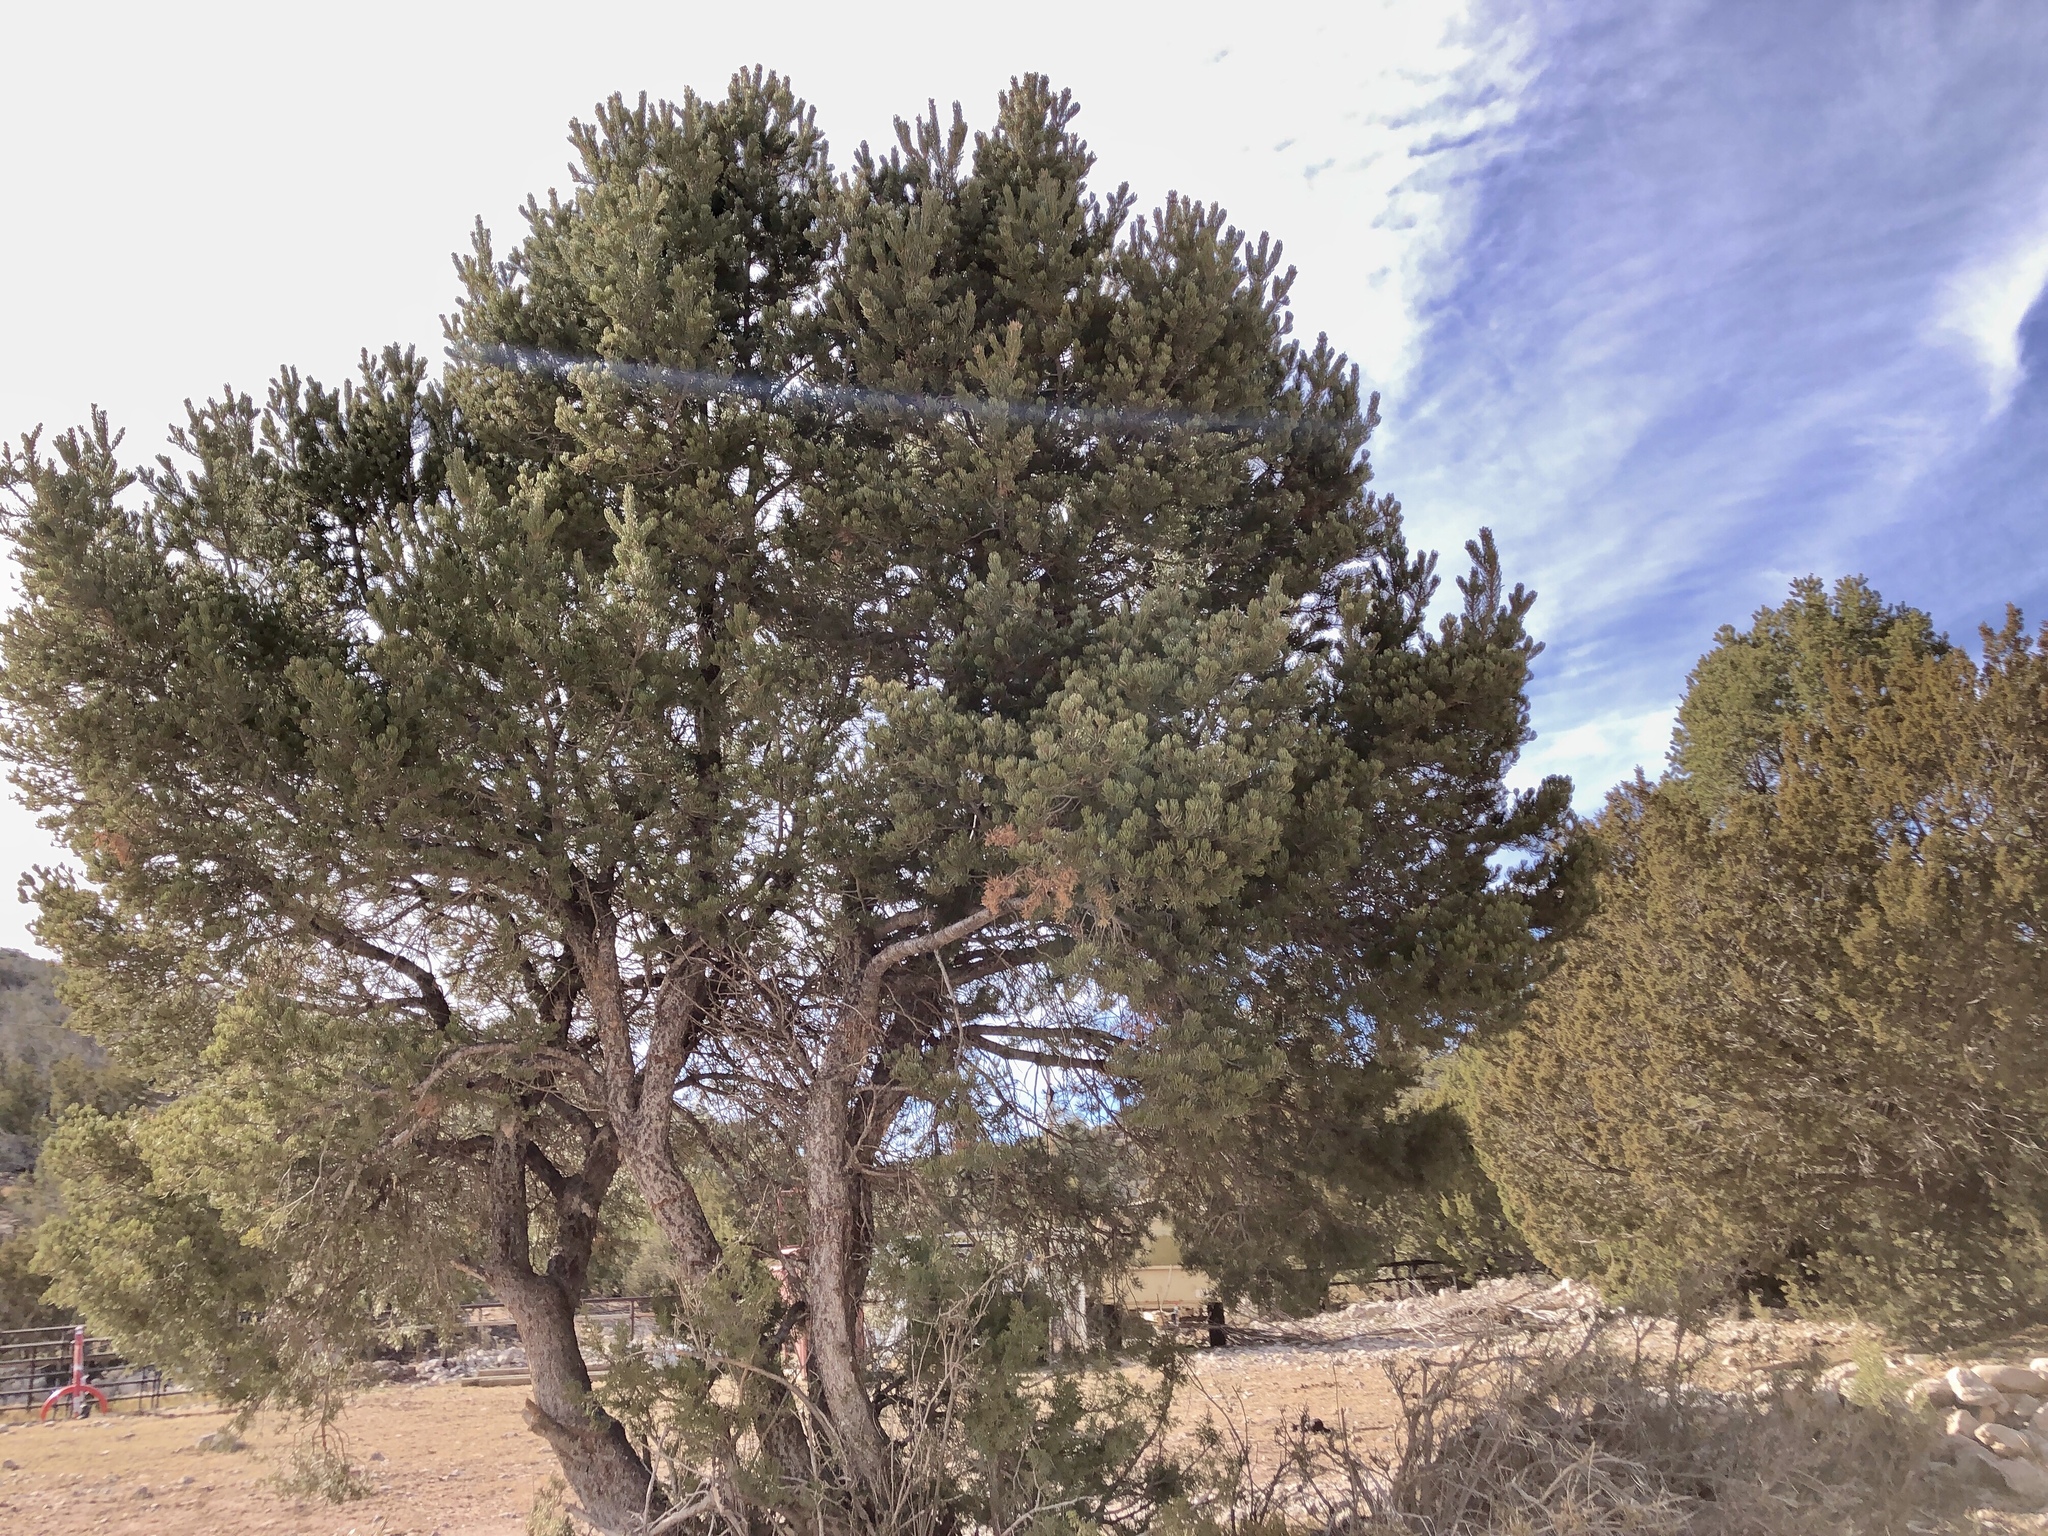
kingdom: Plantae
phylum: Tracheophyta
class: Pinopsida
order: Pinales
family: Pinaceae
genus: Pinus
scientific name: Pinus edulis
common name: Colorado pinyon
